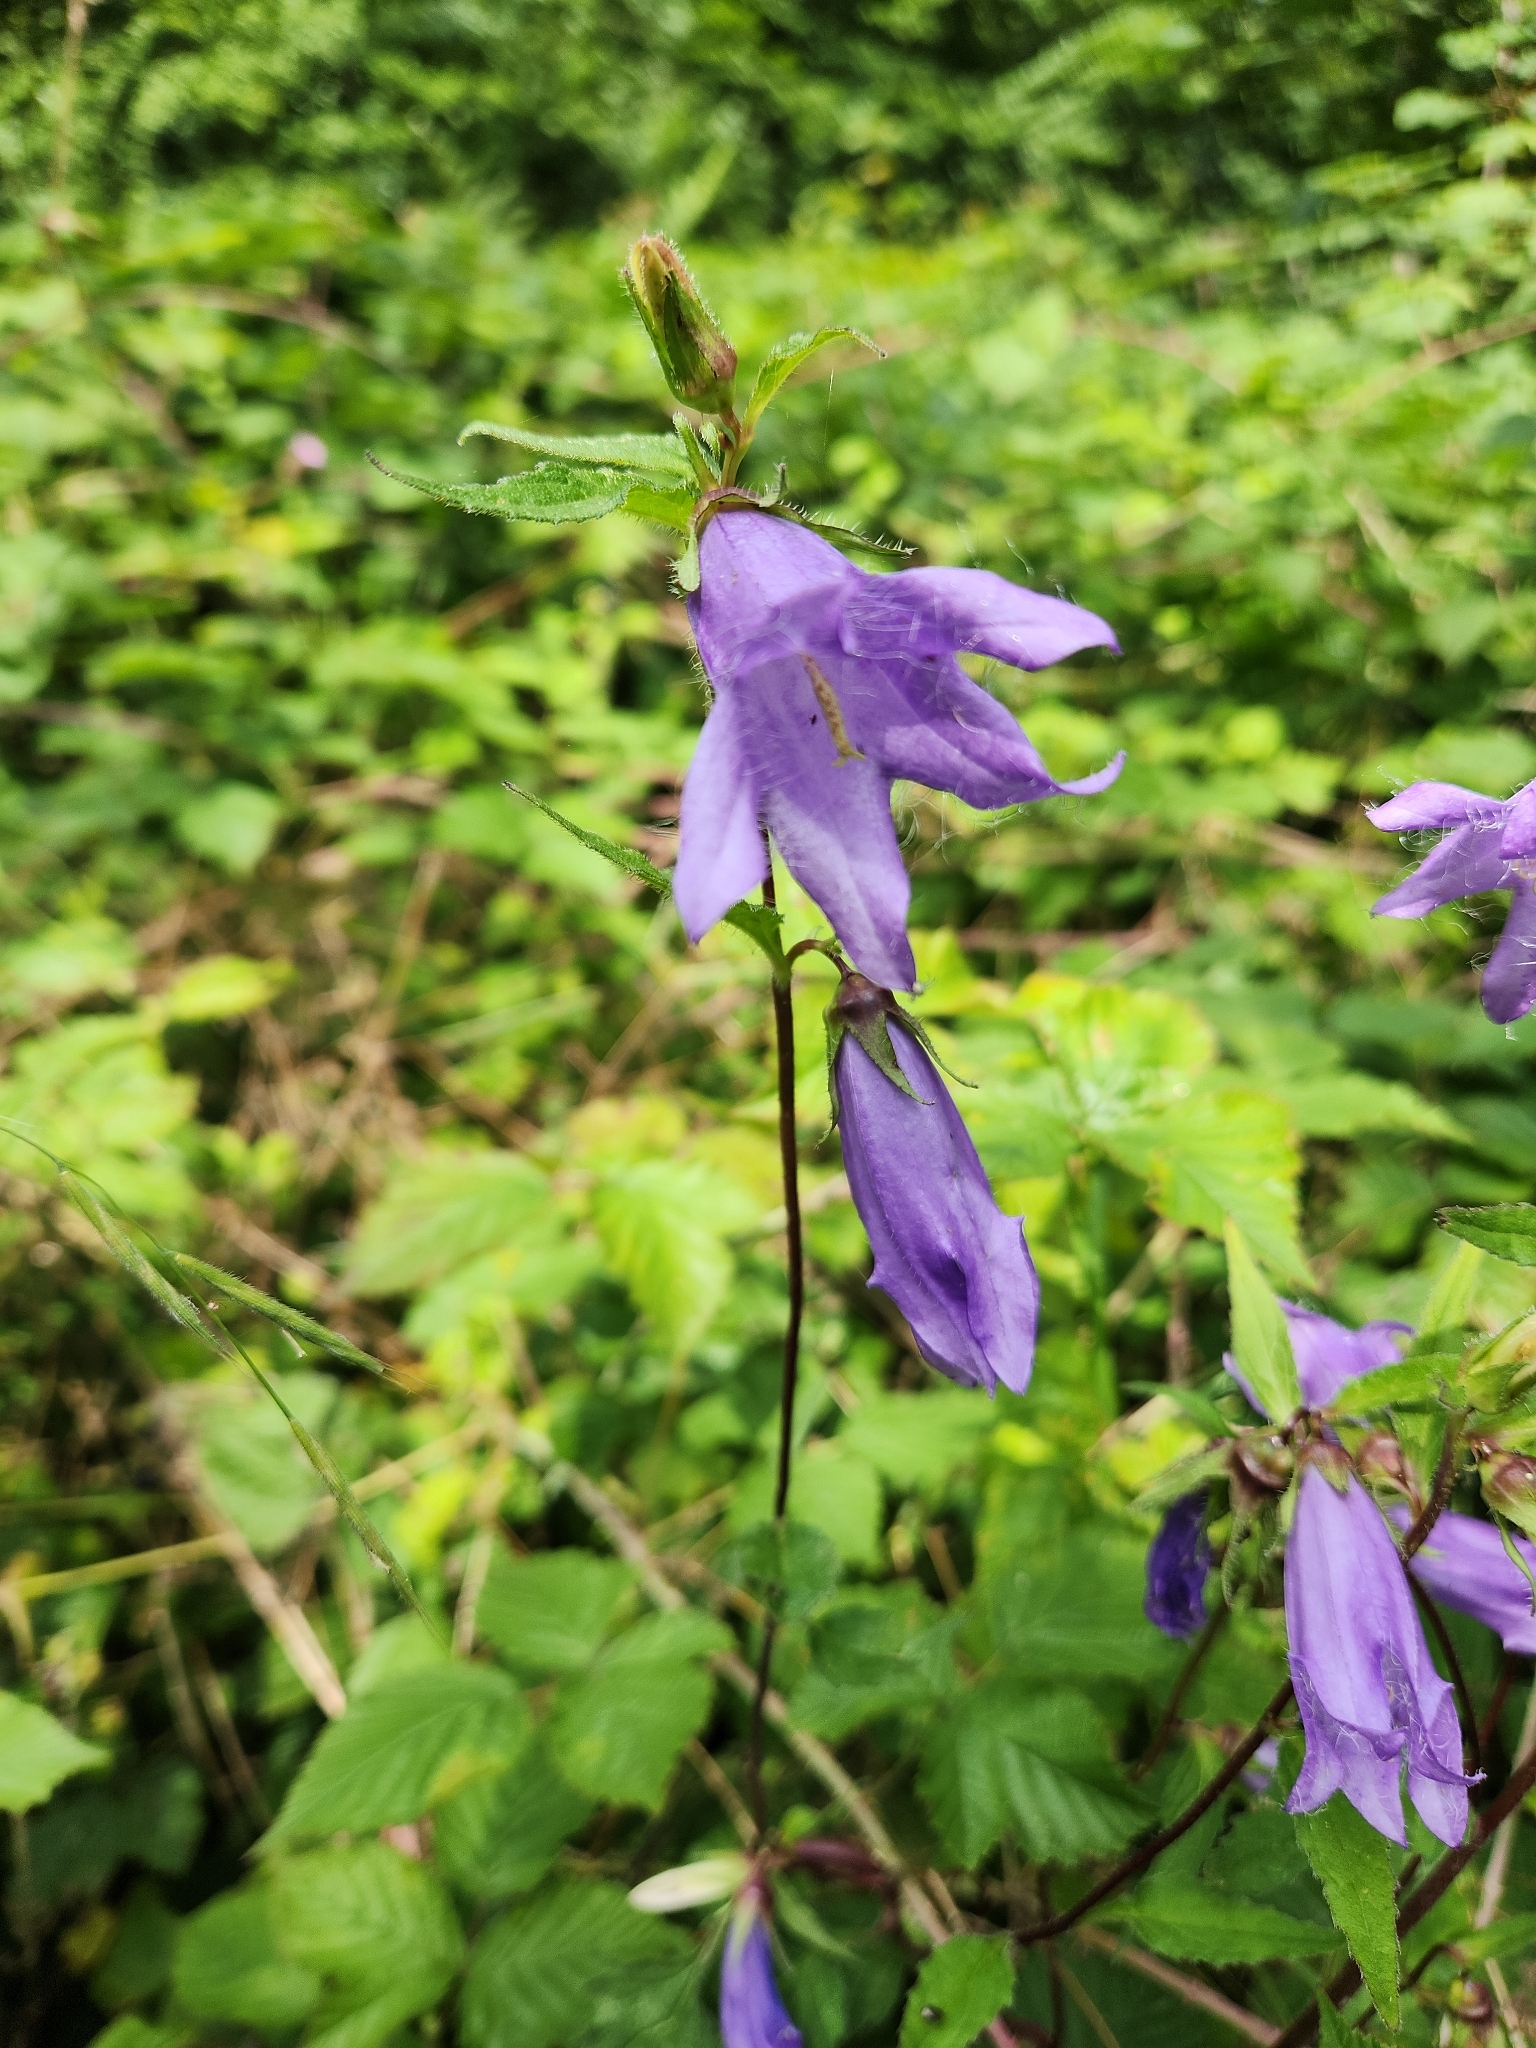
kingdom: Plantae
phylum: Tracheophyta
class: Magnoliopsida
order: Asterales
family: Campanulaceae
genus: Campanula
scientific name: Campanula trachelium
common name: Nettle-leaved bellflower
